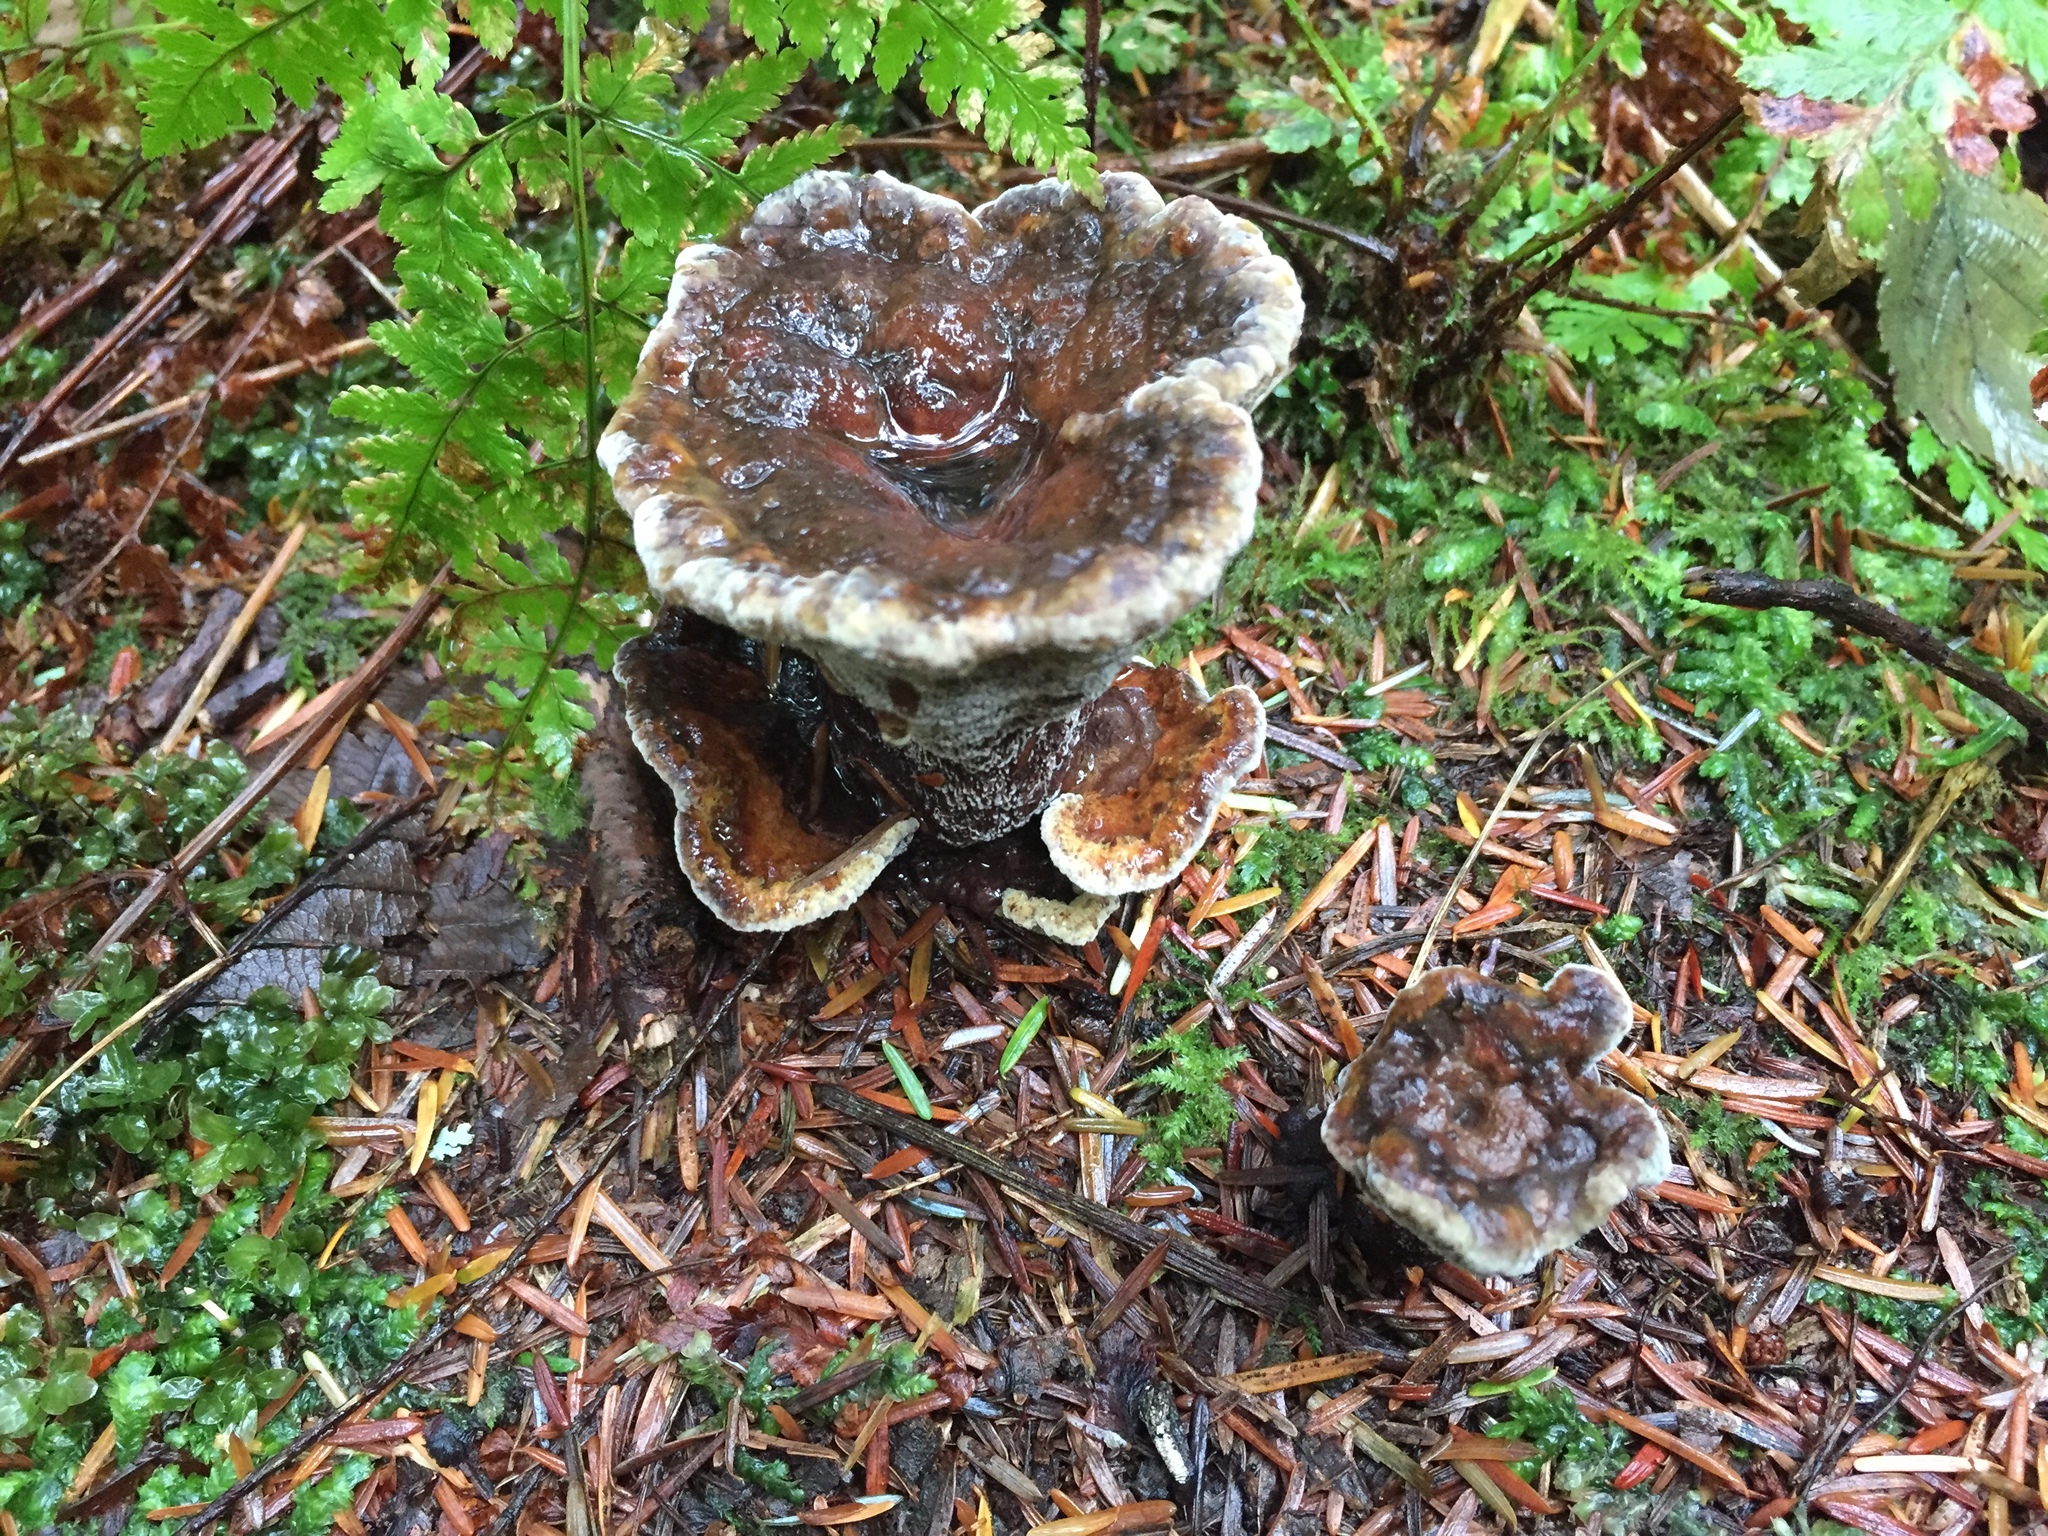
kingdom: Fungi
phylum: Basidiomycota
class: Agaricomycetes
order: Polyporales
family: Laetiporaceae
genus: Phaeolus
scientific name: Phaeolus schweinitzii
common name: Dyer's mazegill
